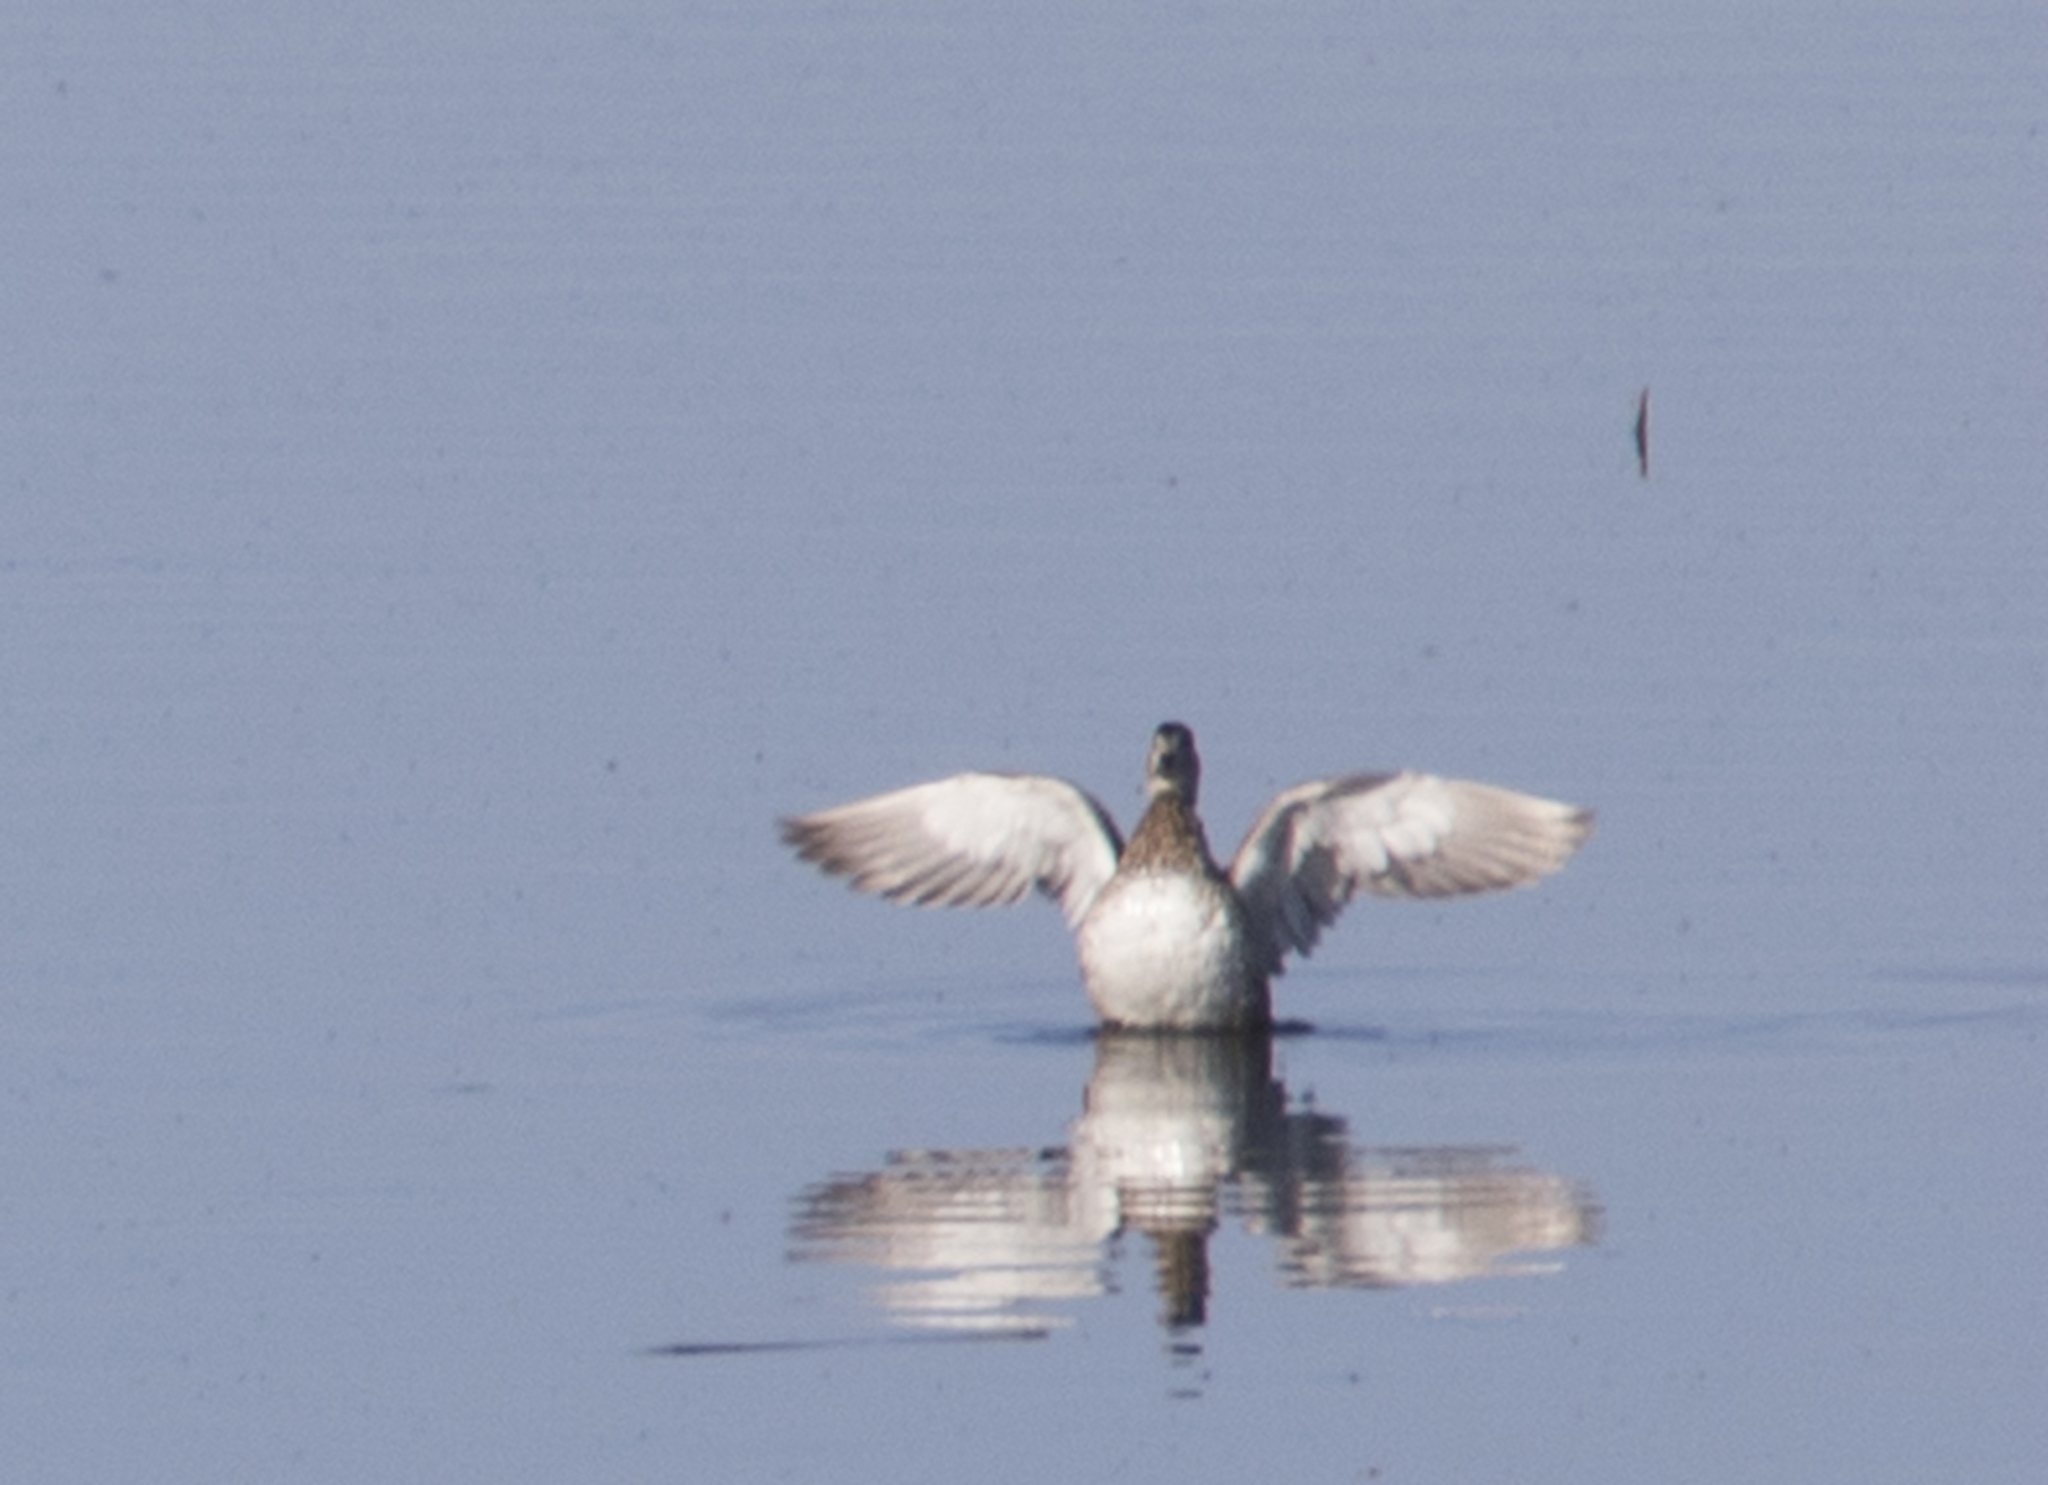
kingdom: Animalia
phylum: Chordata
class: Aves
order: Anseriformes
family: Anatidae
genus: Anas
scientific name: Anas platyrhynchos
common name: Mallard
